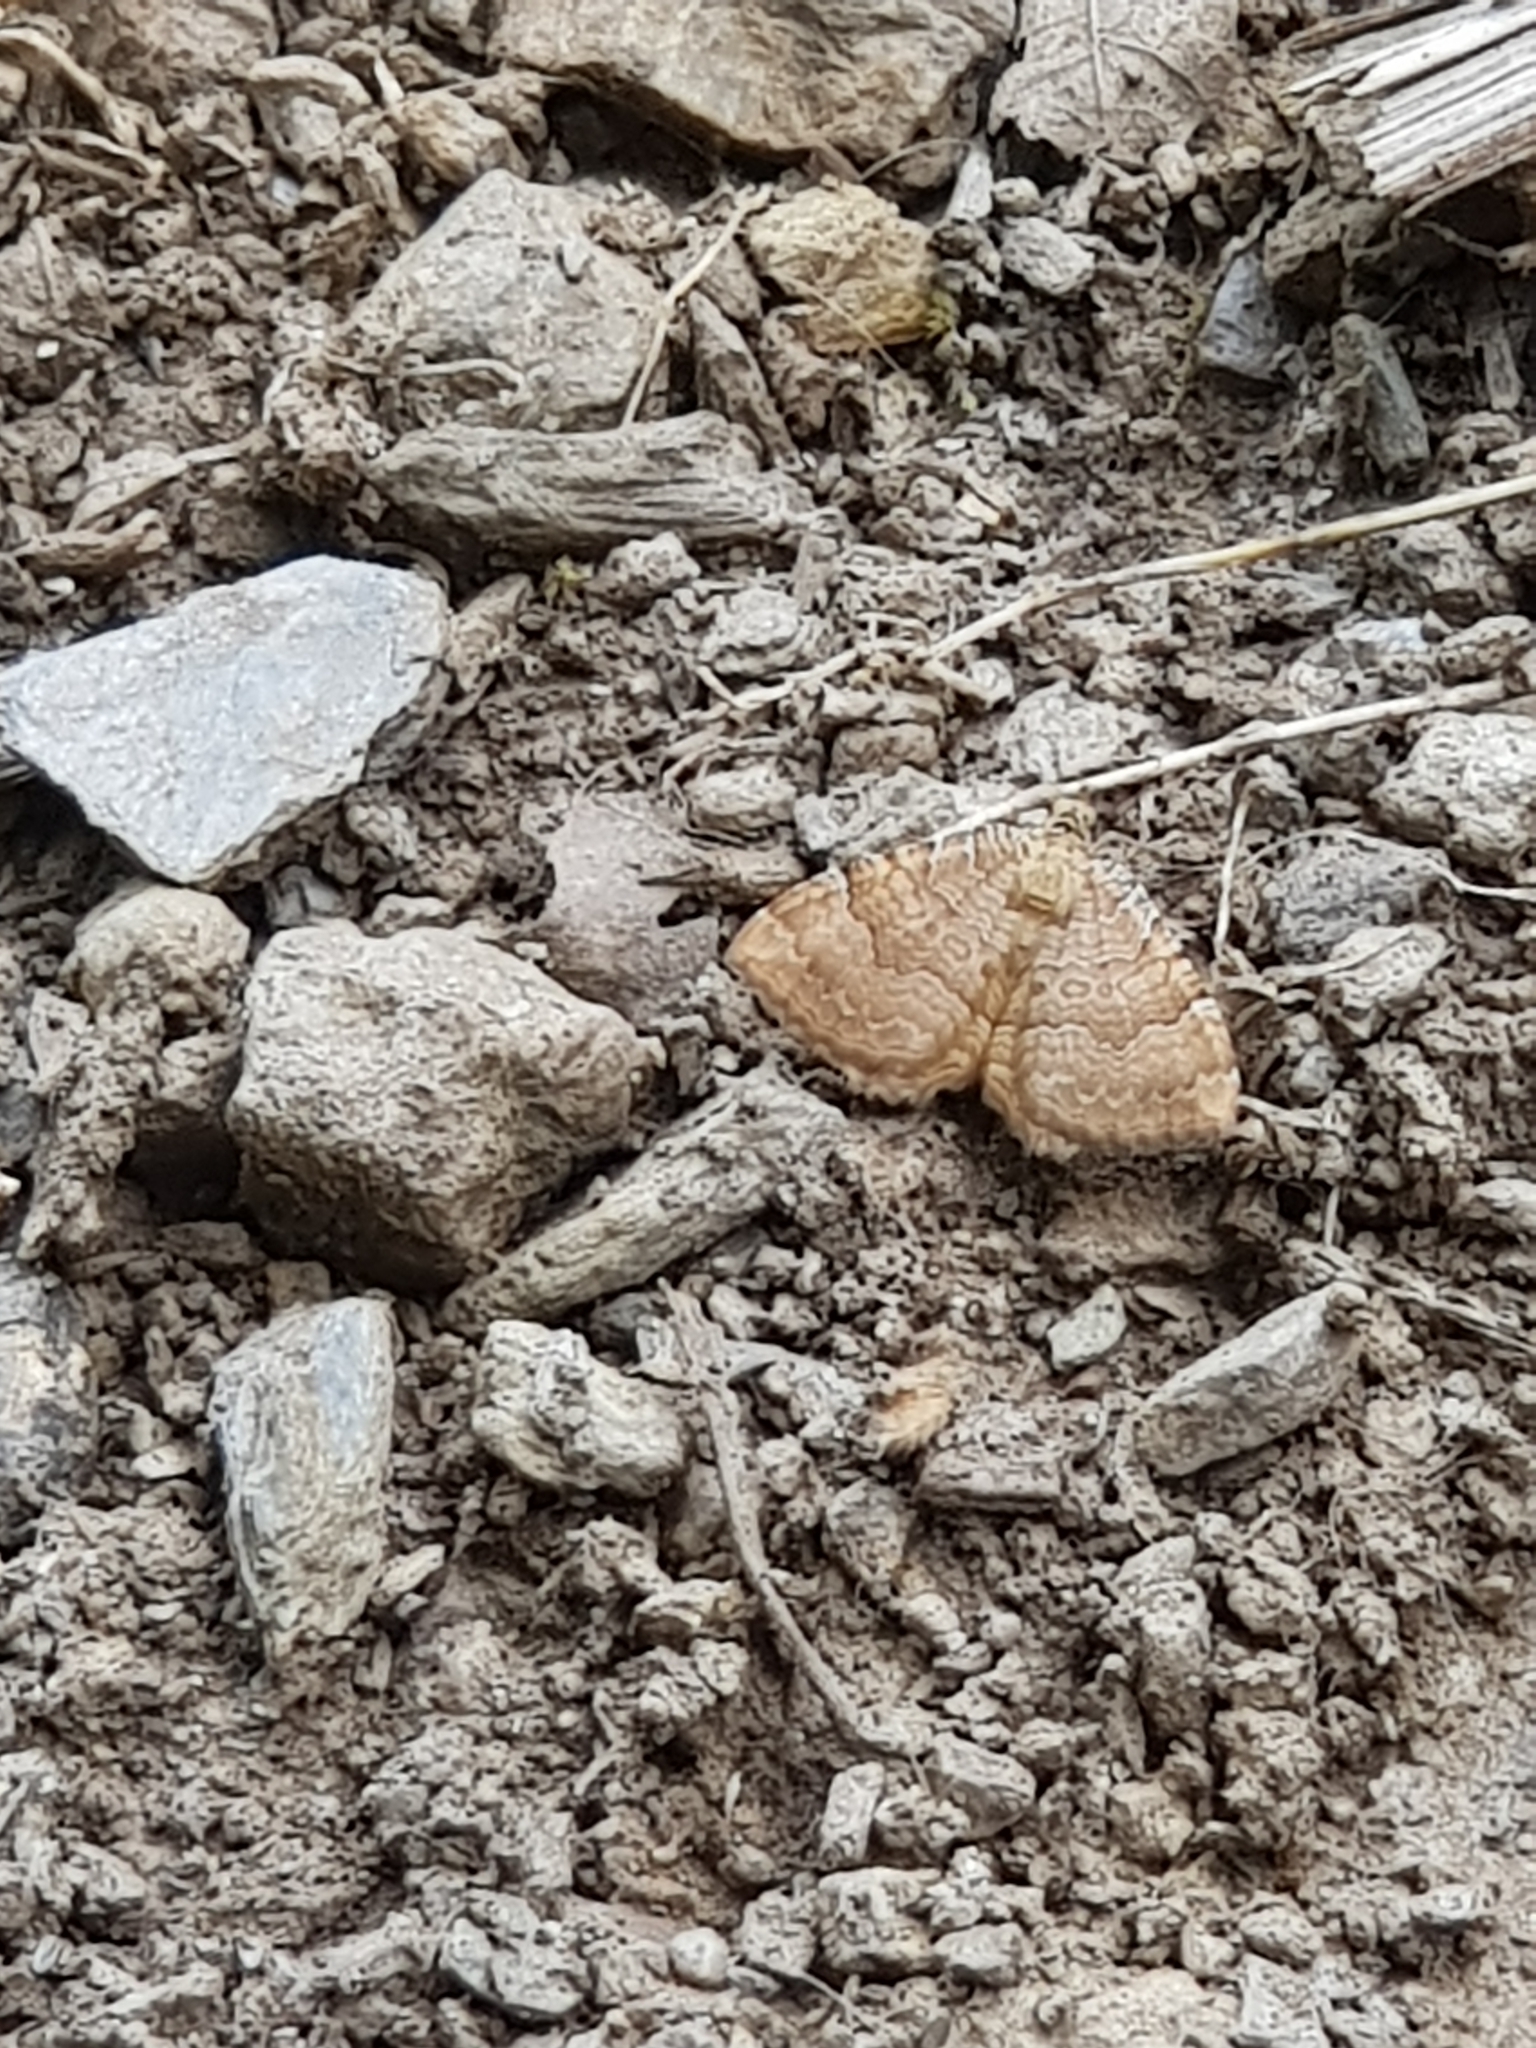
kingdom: Animalia
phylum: Arthropoda
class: Insecta
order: Lepidoptera
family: Geometridae
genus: Camptogramma
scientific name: Camptogramma bilineata
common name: Yellow shell
